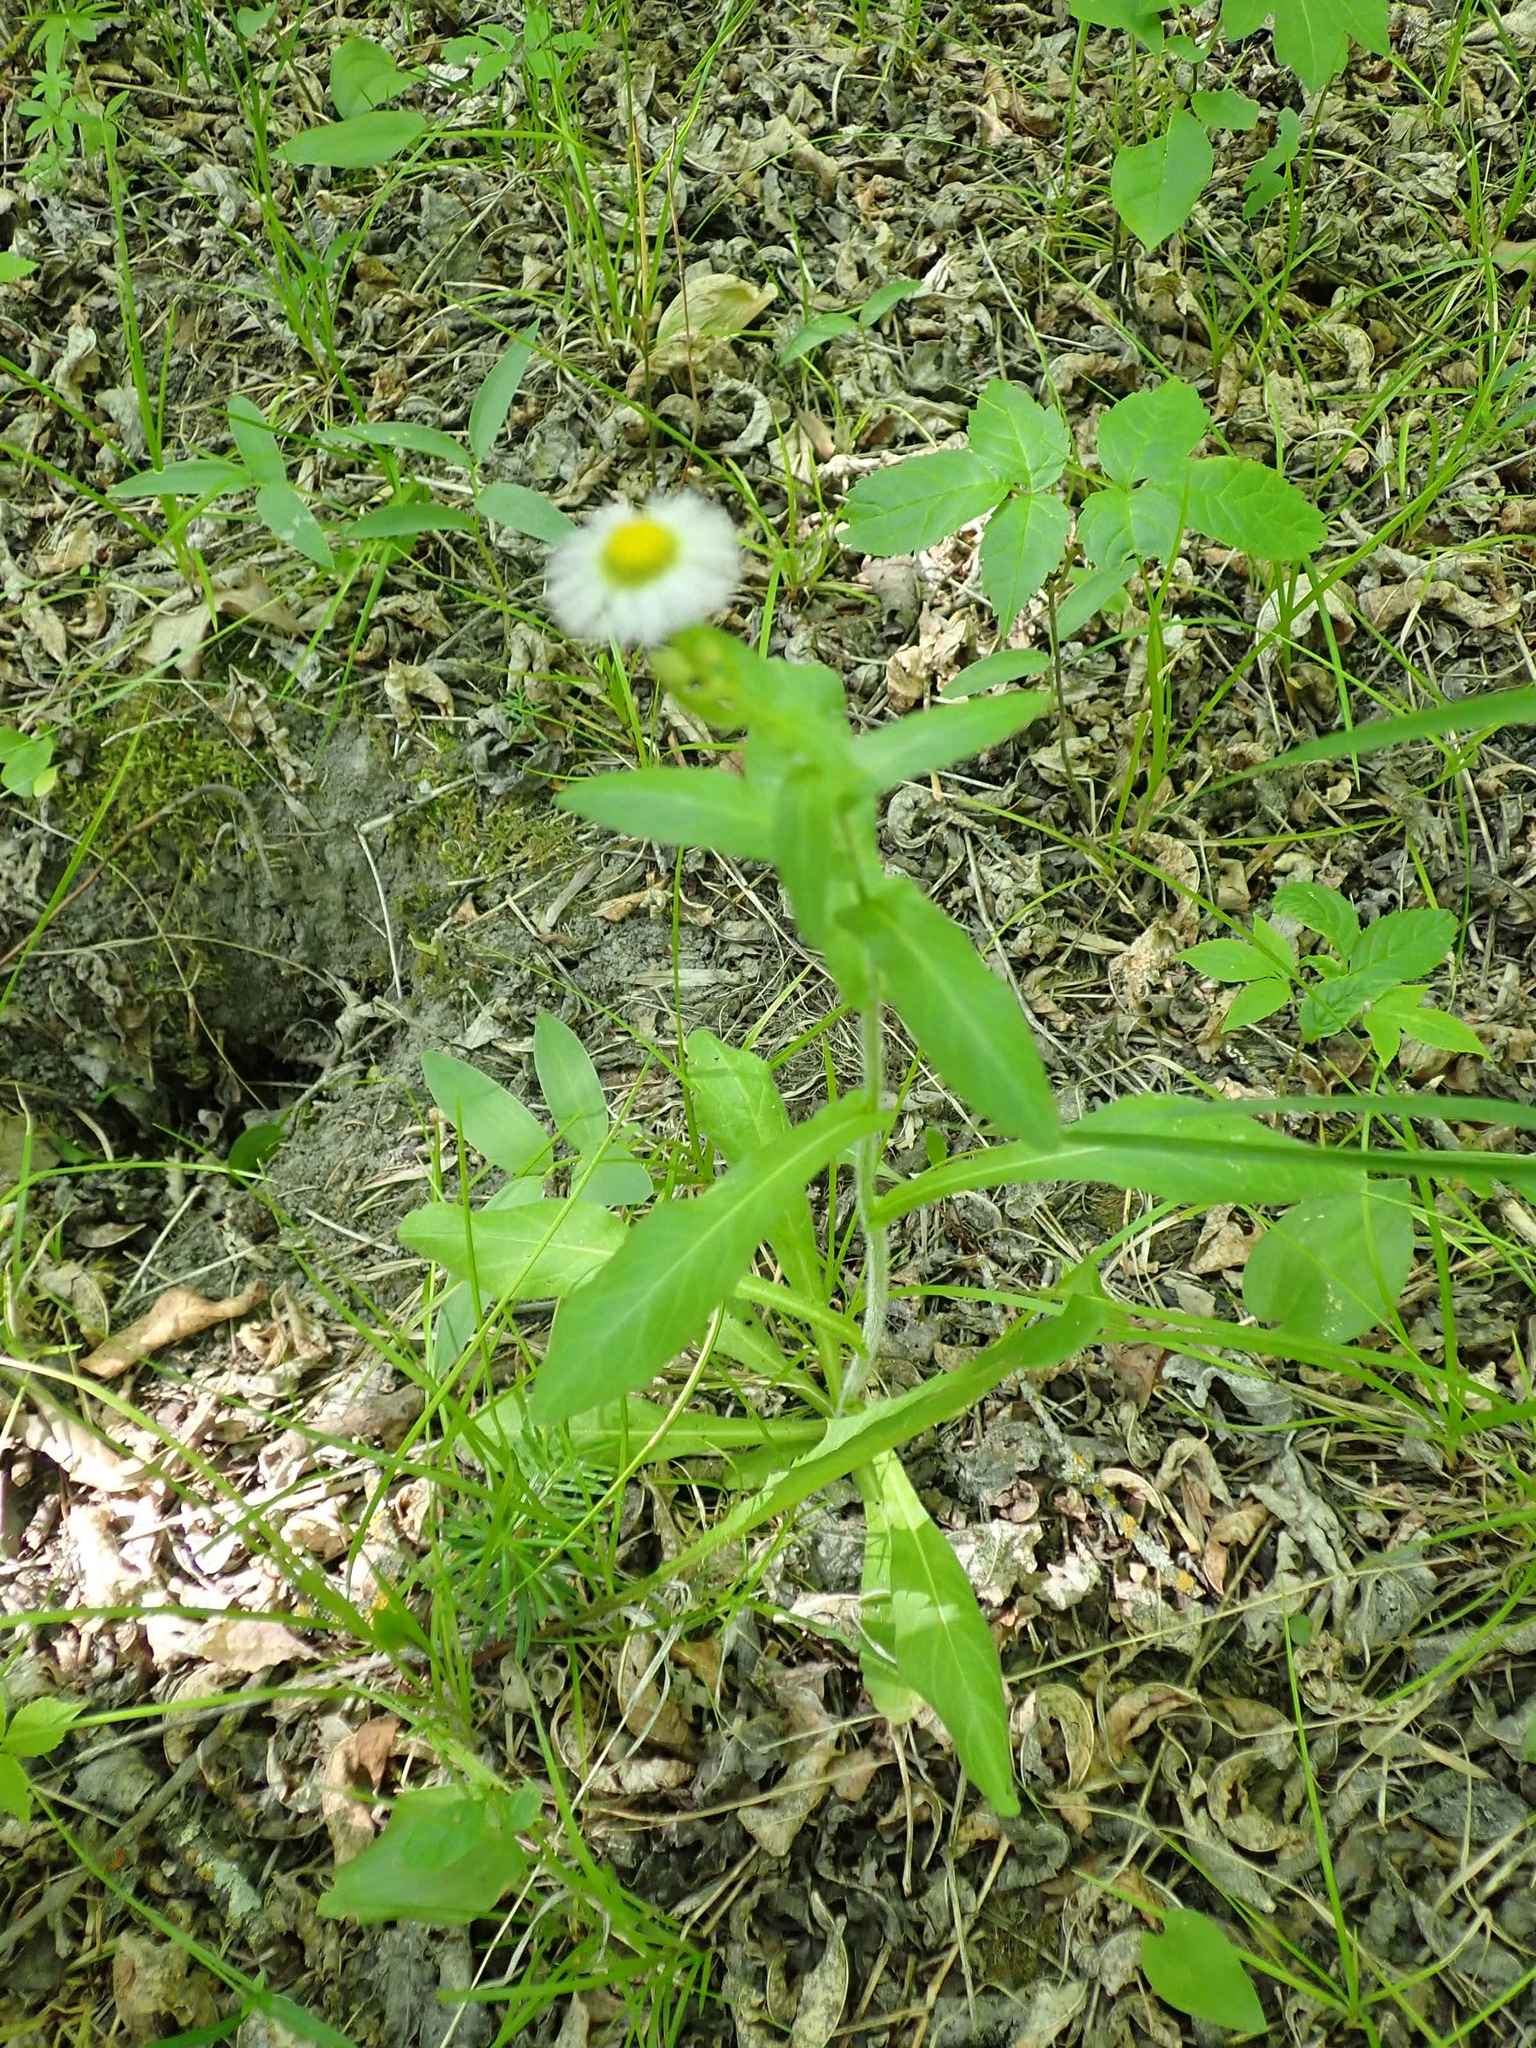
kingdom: Plantae
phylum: Tracheophyta
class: Magnoliopsida
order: Asterales
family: Asteraceae
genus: Erigeron
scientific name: Erigeron philadelphicus
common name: Robin's-plantain
